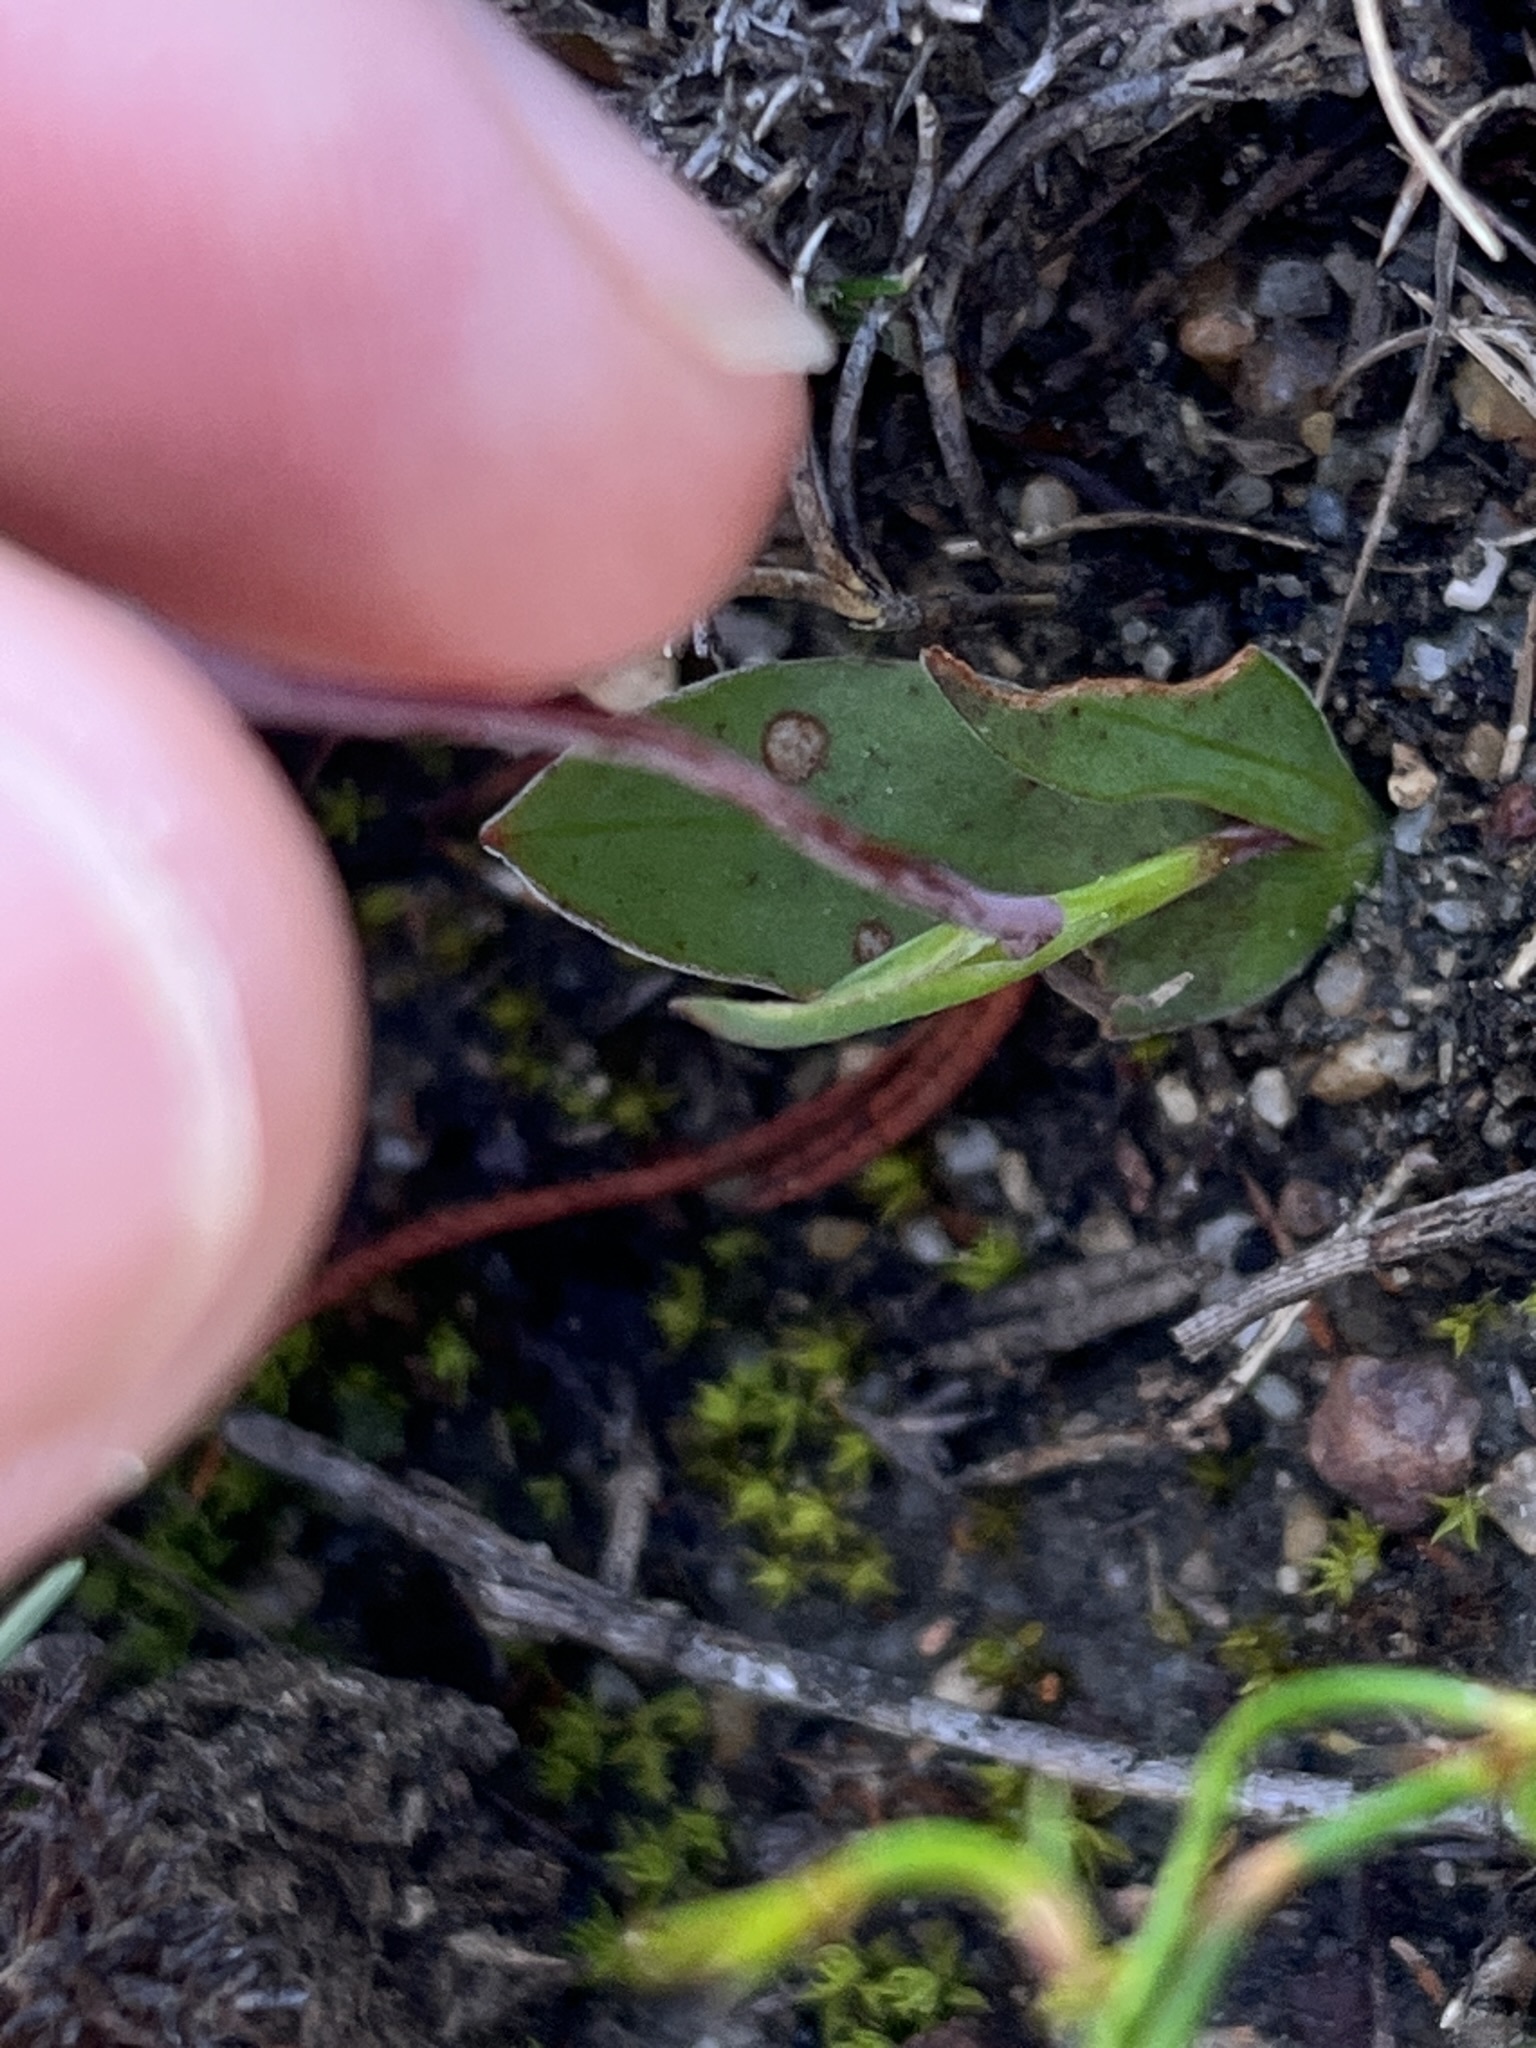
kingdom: Plantae
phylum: Tracheophyta
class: Liliopsida
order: Asparagales
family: Iridaceae
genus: Geissorhiza
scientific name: Geissorhiza ovata
